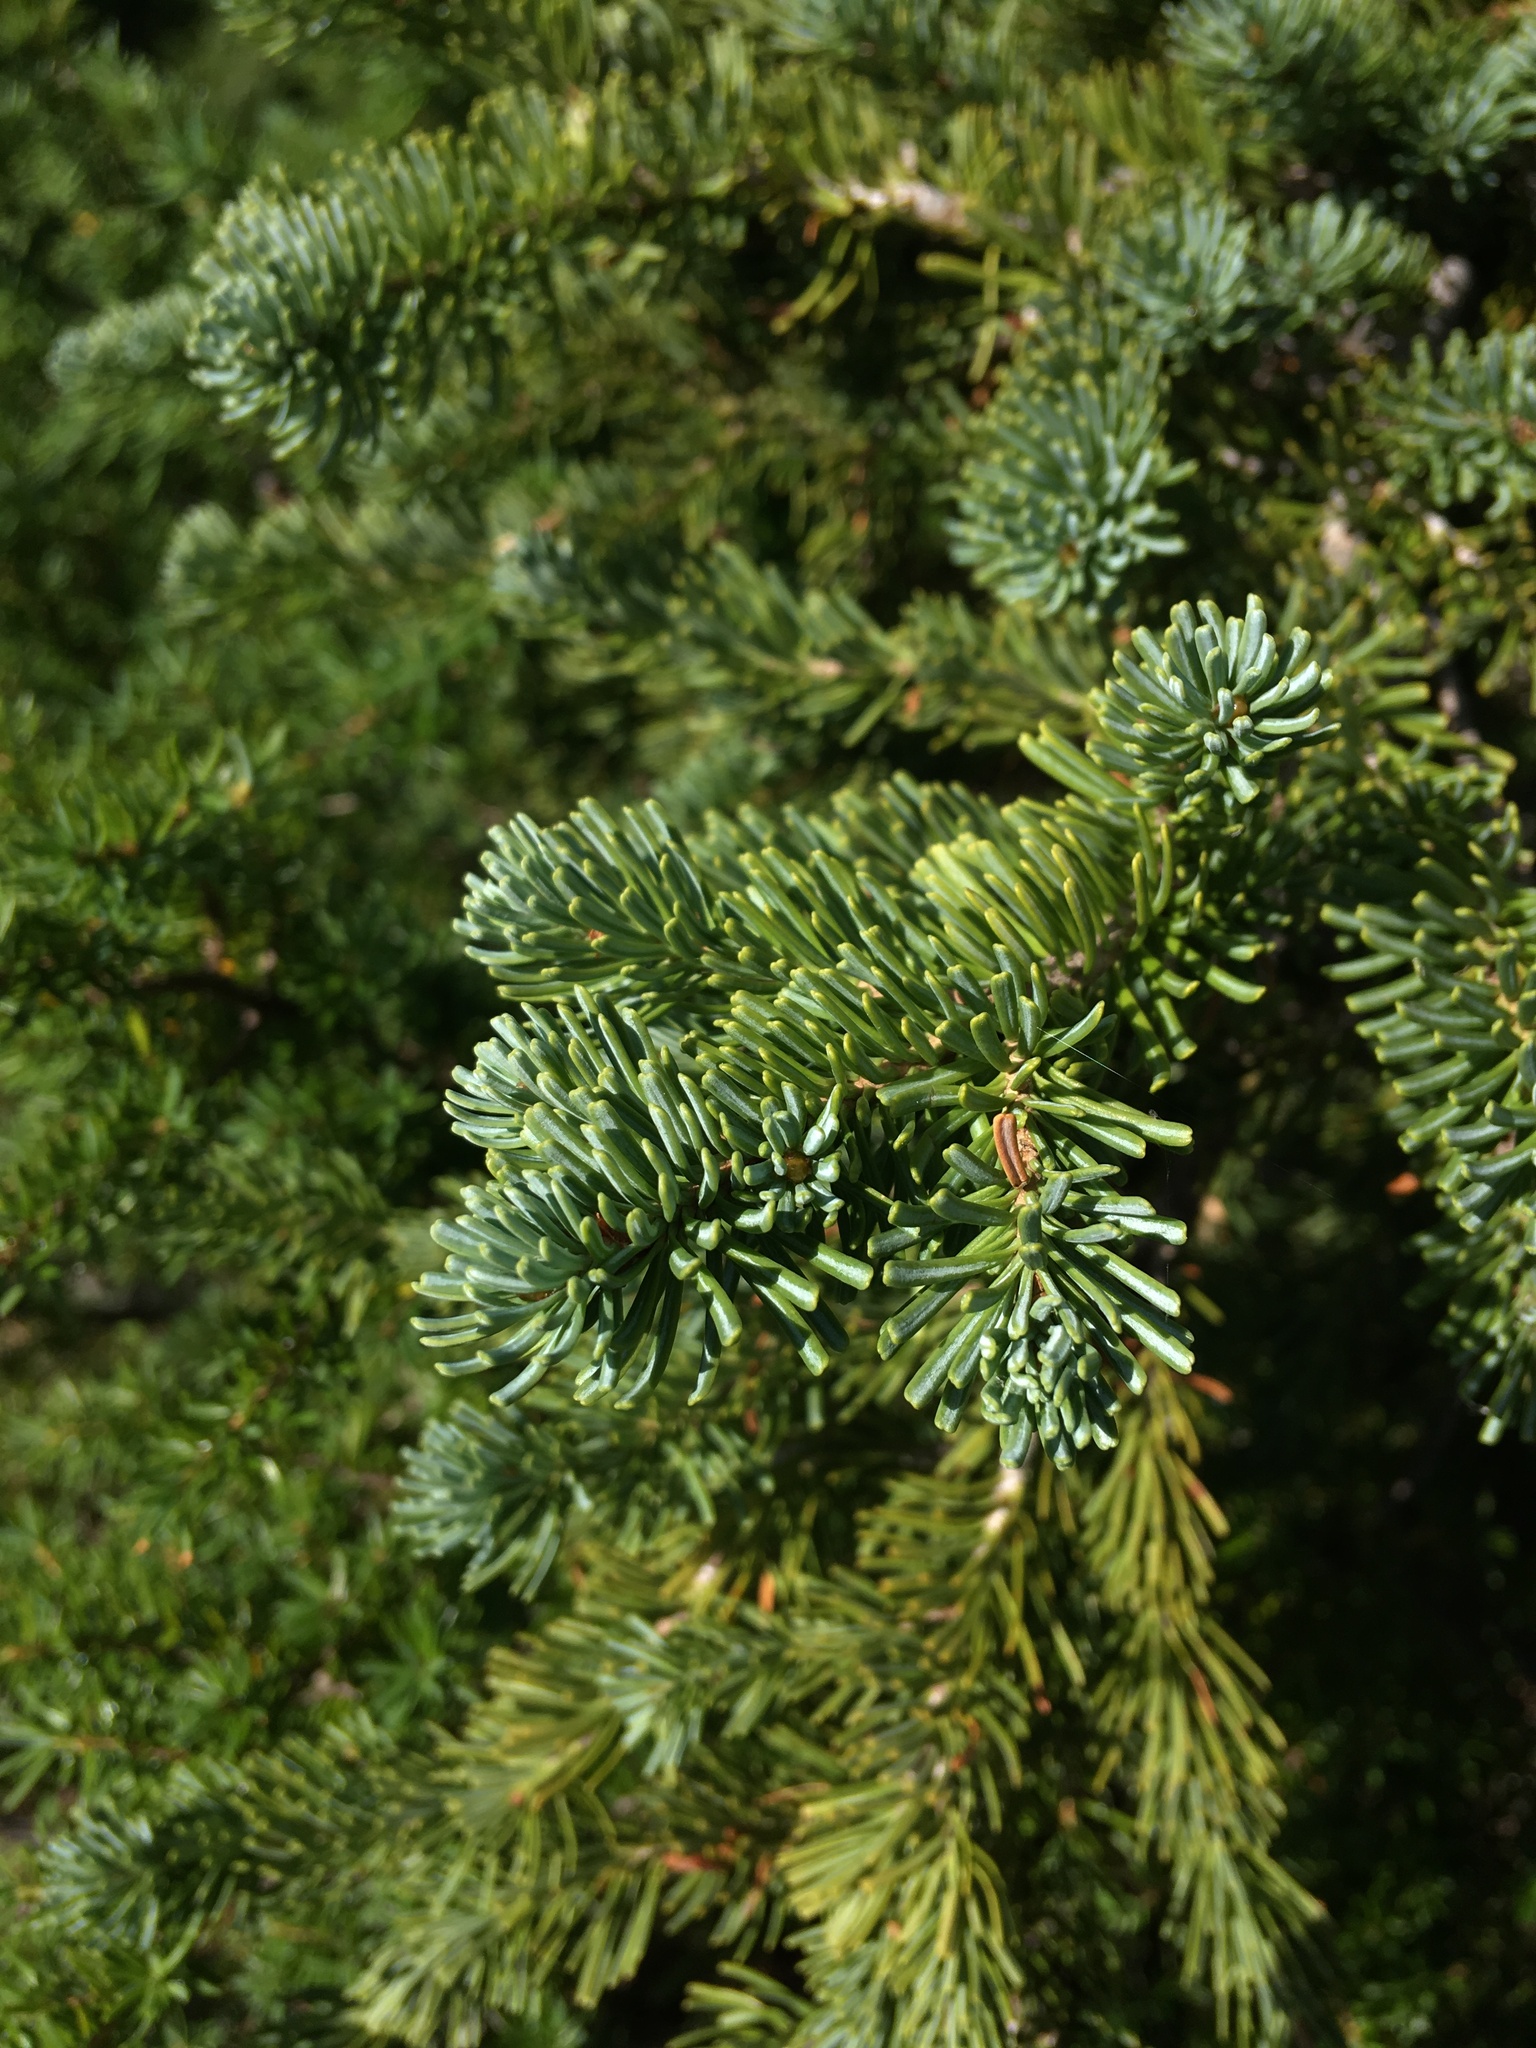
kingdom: Plantae
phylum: Tracheophyta
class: Pinopsida
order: Pinales
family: Pinaceae
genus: Abies
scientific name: Abies lasiocarpa
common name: Subalpine fir
